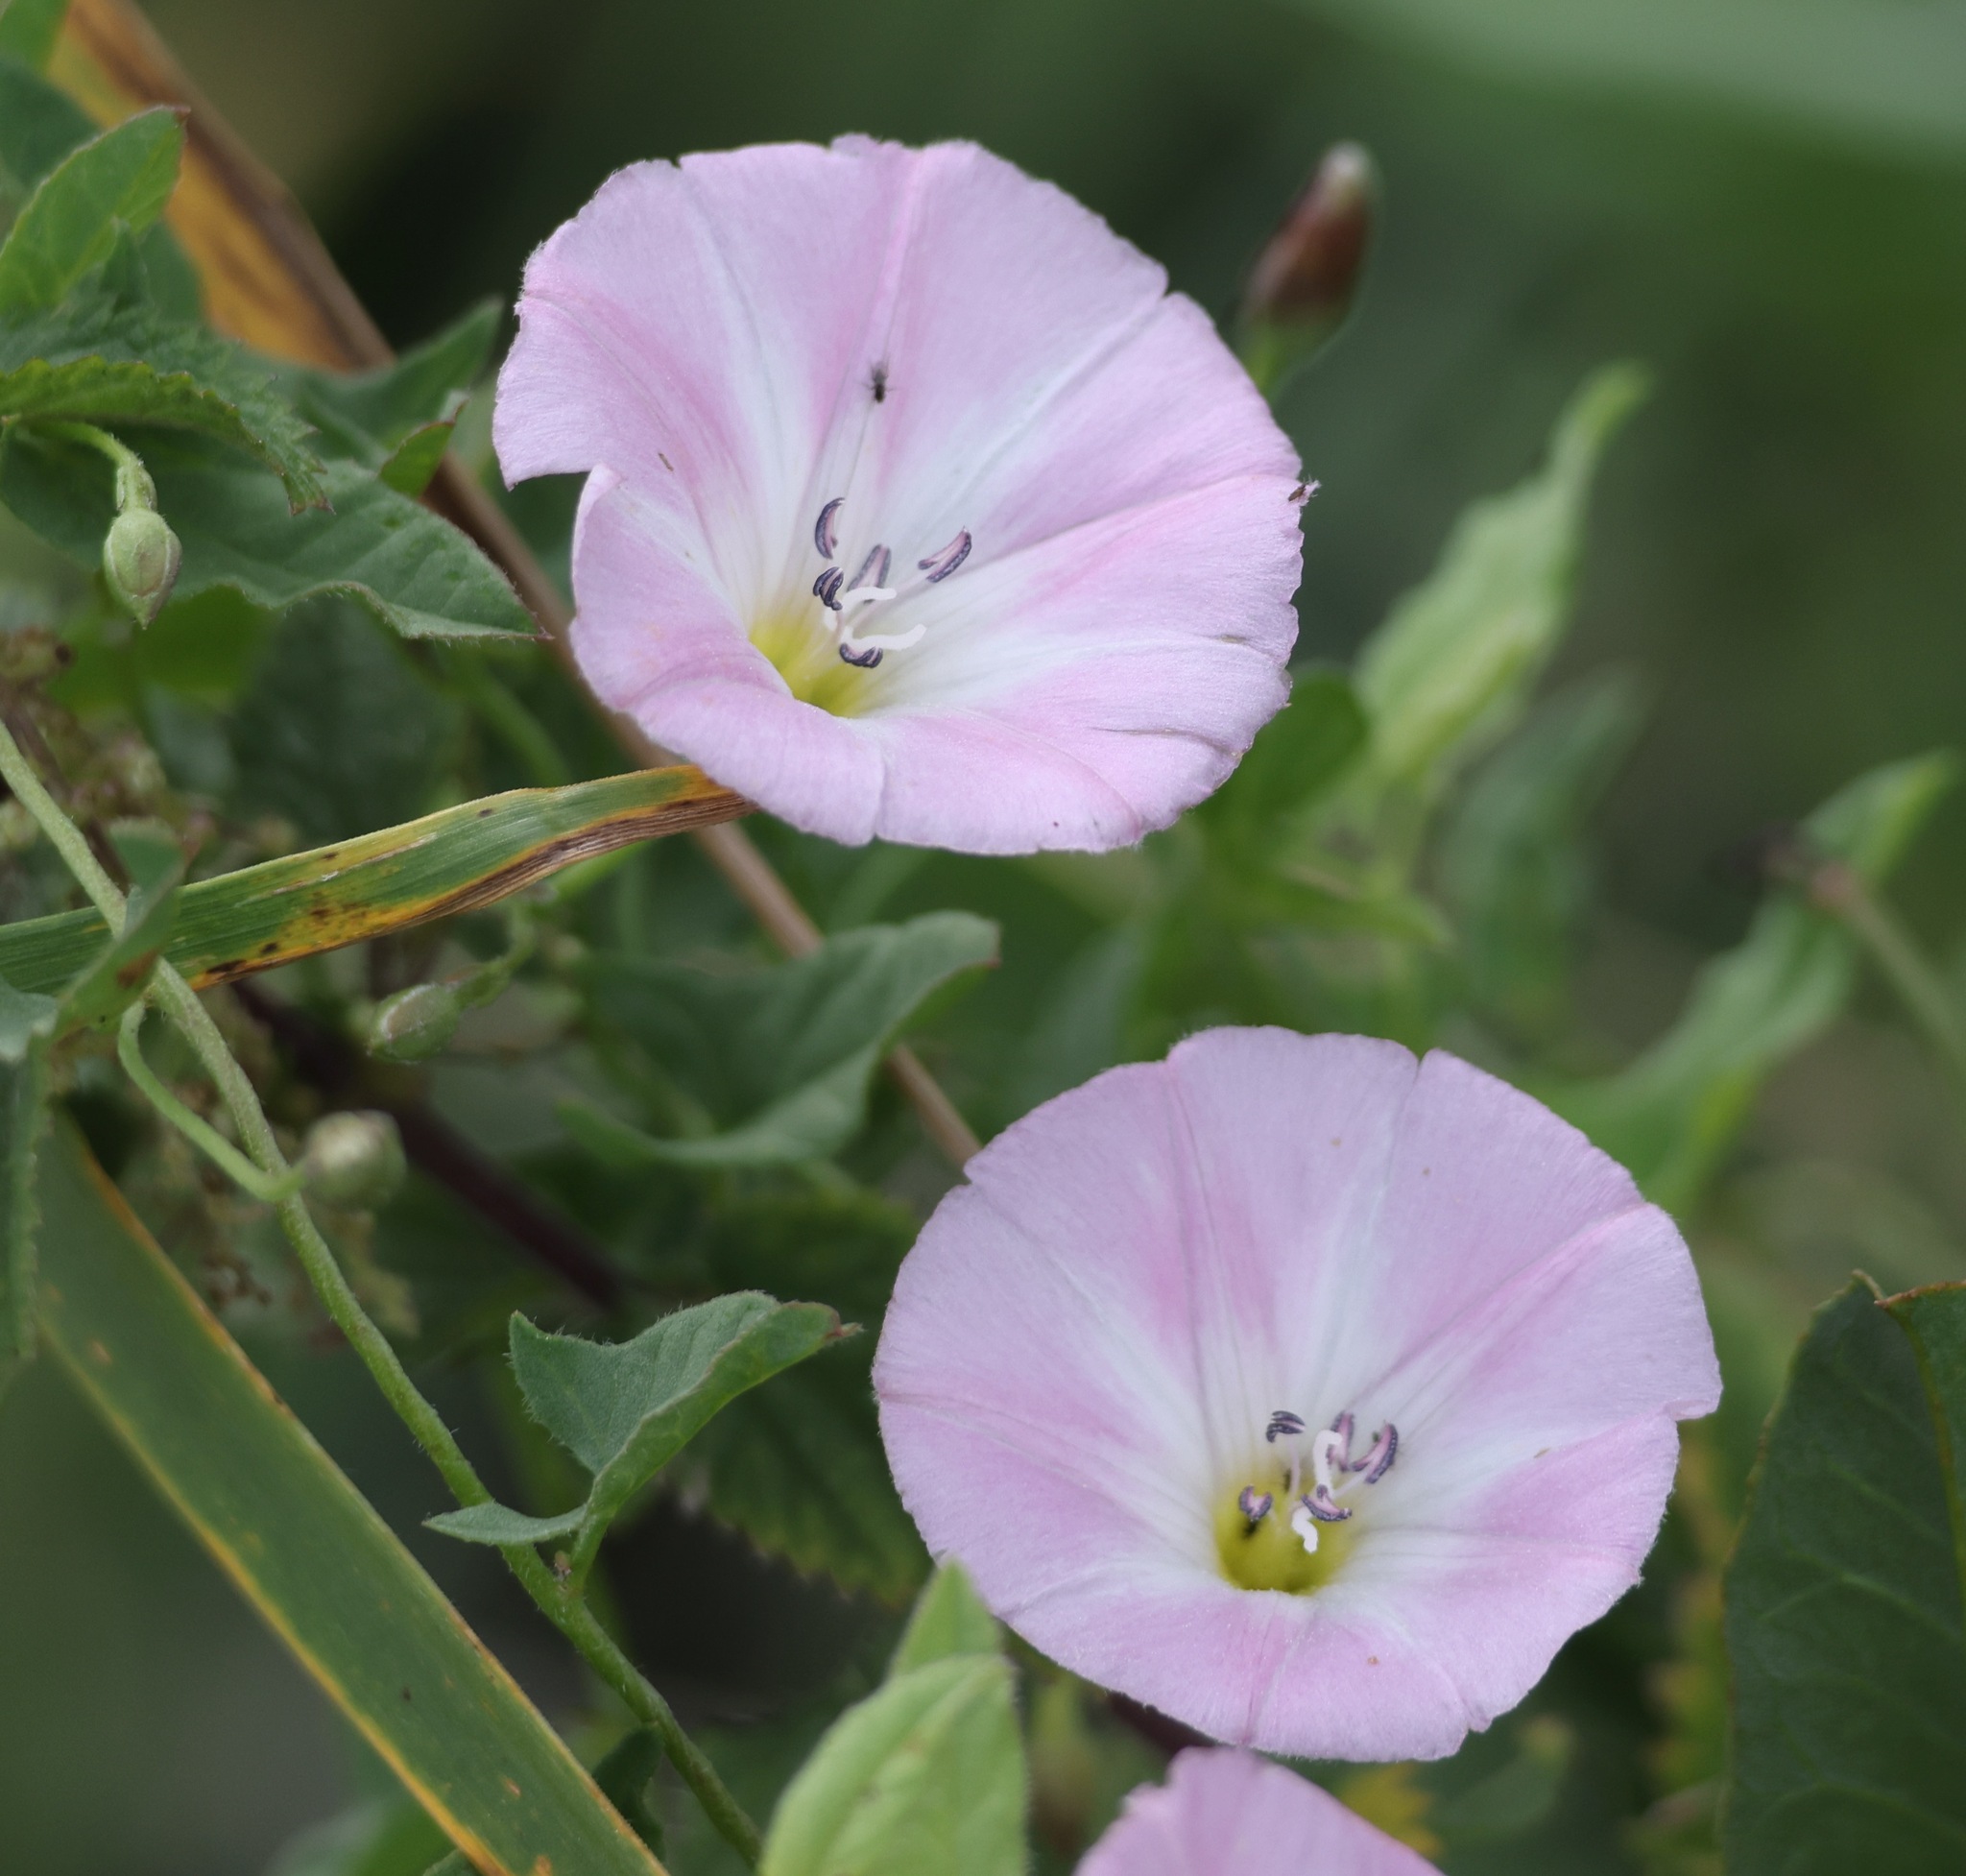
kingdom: Plantae
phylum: Tracheophyta
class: Magnoliopsida
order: Solanales
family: Convolvulaceae
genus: Convolvulus
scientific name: Convolvulus arvensis
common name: Field bindweed
